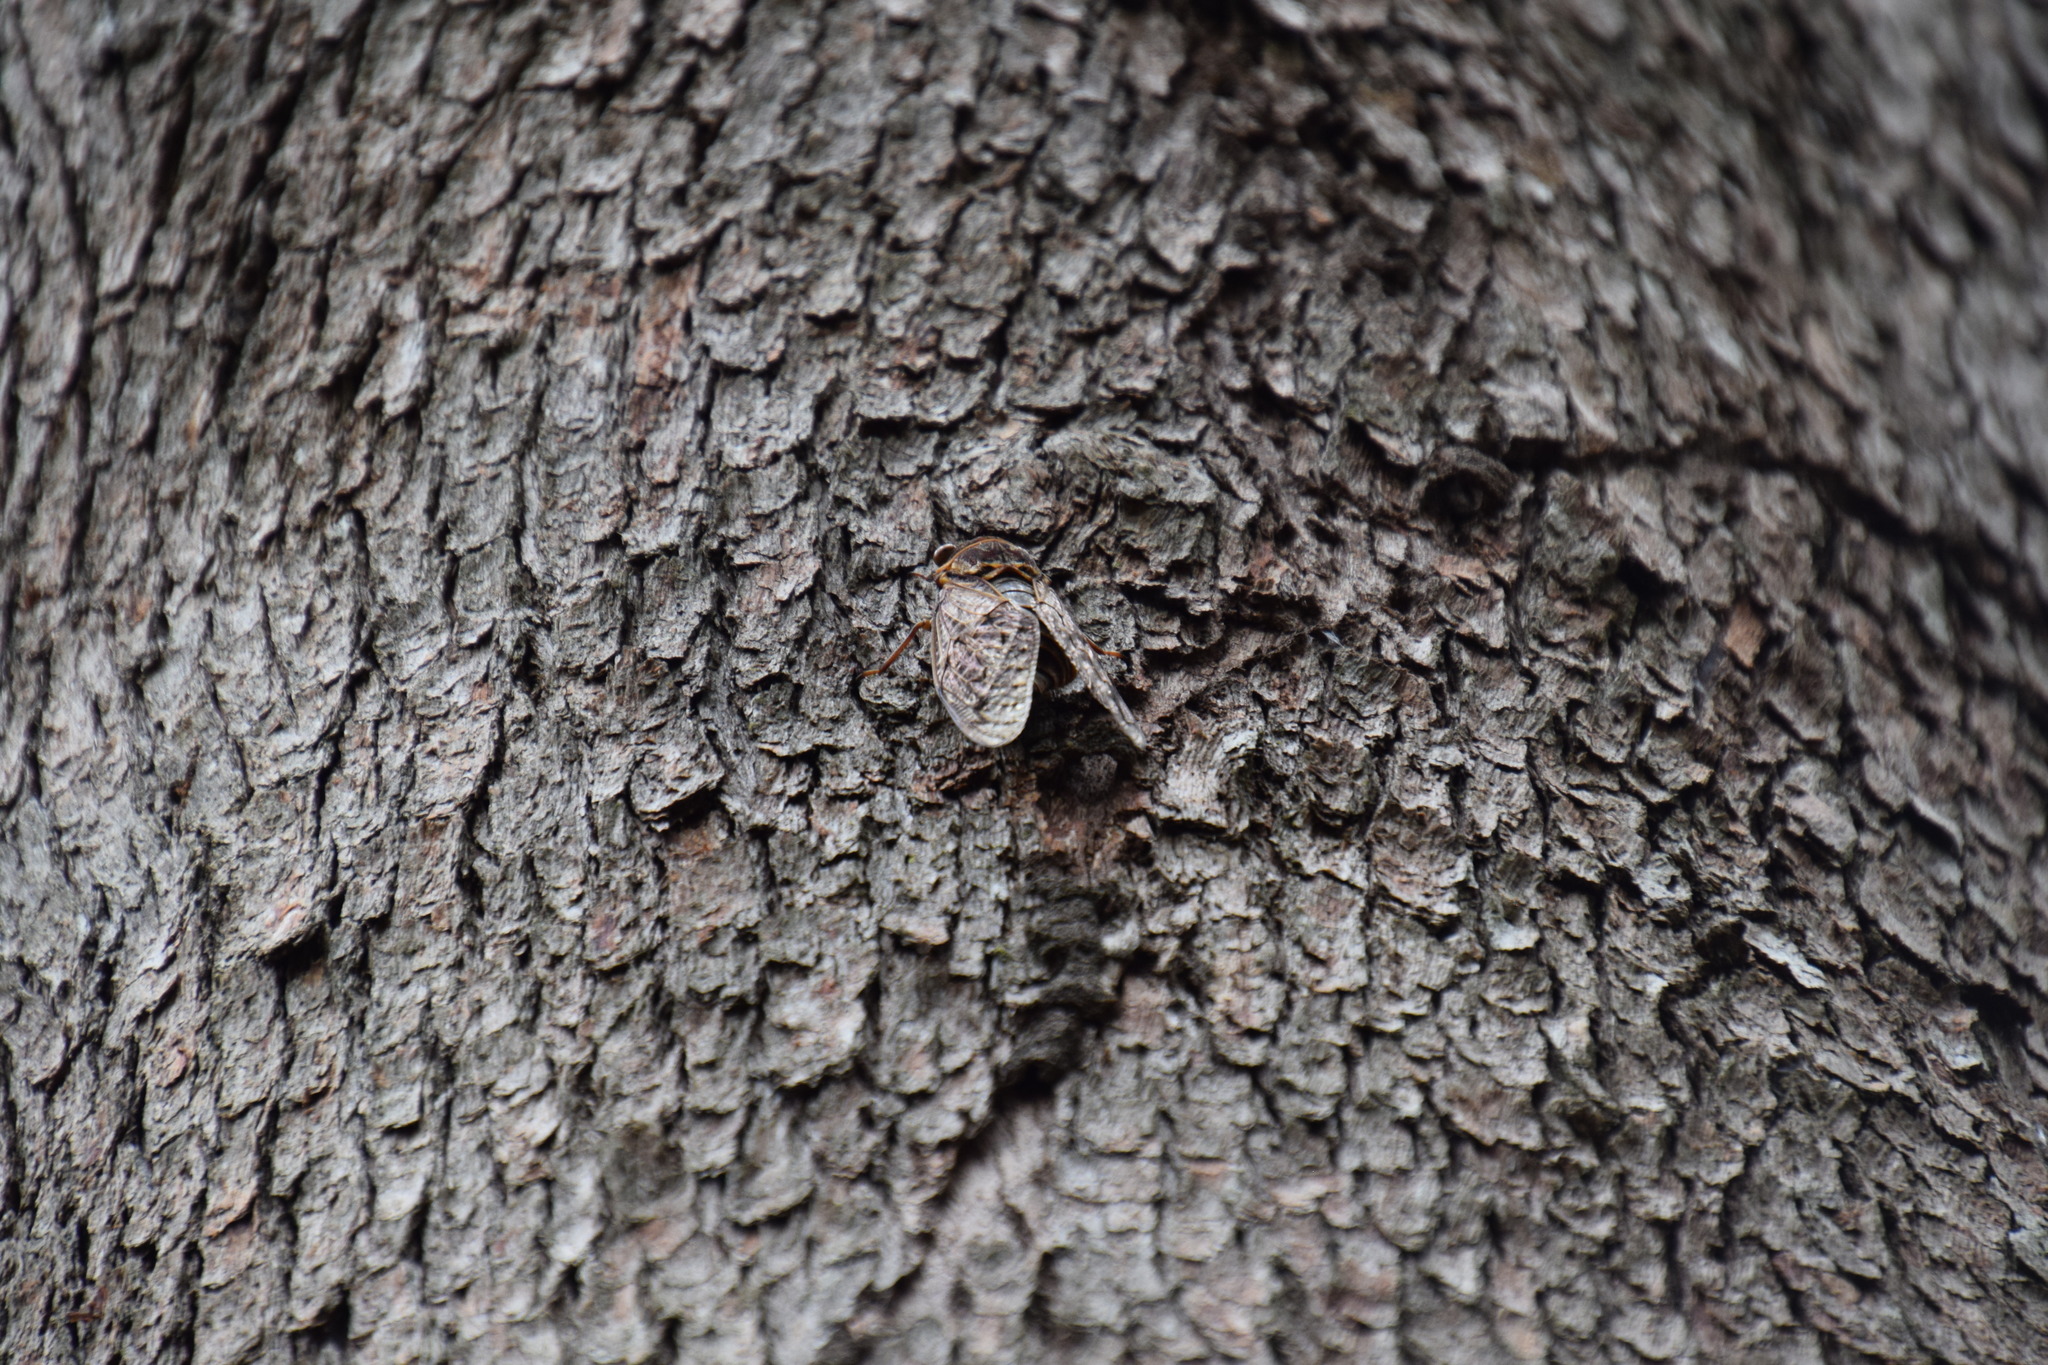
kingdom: Animalia
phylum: Arthropoda
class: Insecta
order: Hemiptera
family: Cicadidae
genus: Henicopsaltria
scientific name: Henicopsaltria eydouxii
